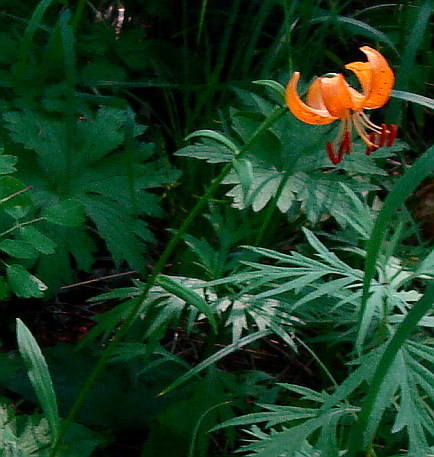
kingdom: Plantae
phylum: Tracheophyta
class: Liliopsida
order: Liliales
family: Liliaceae
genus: Lilium
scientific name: Lilium debile
